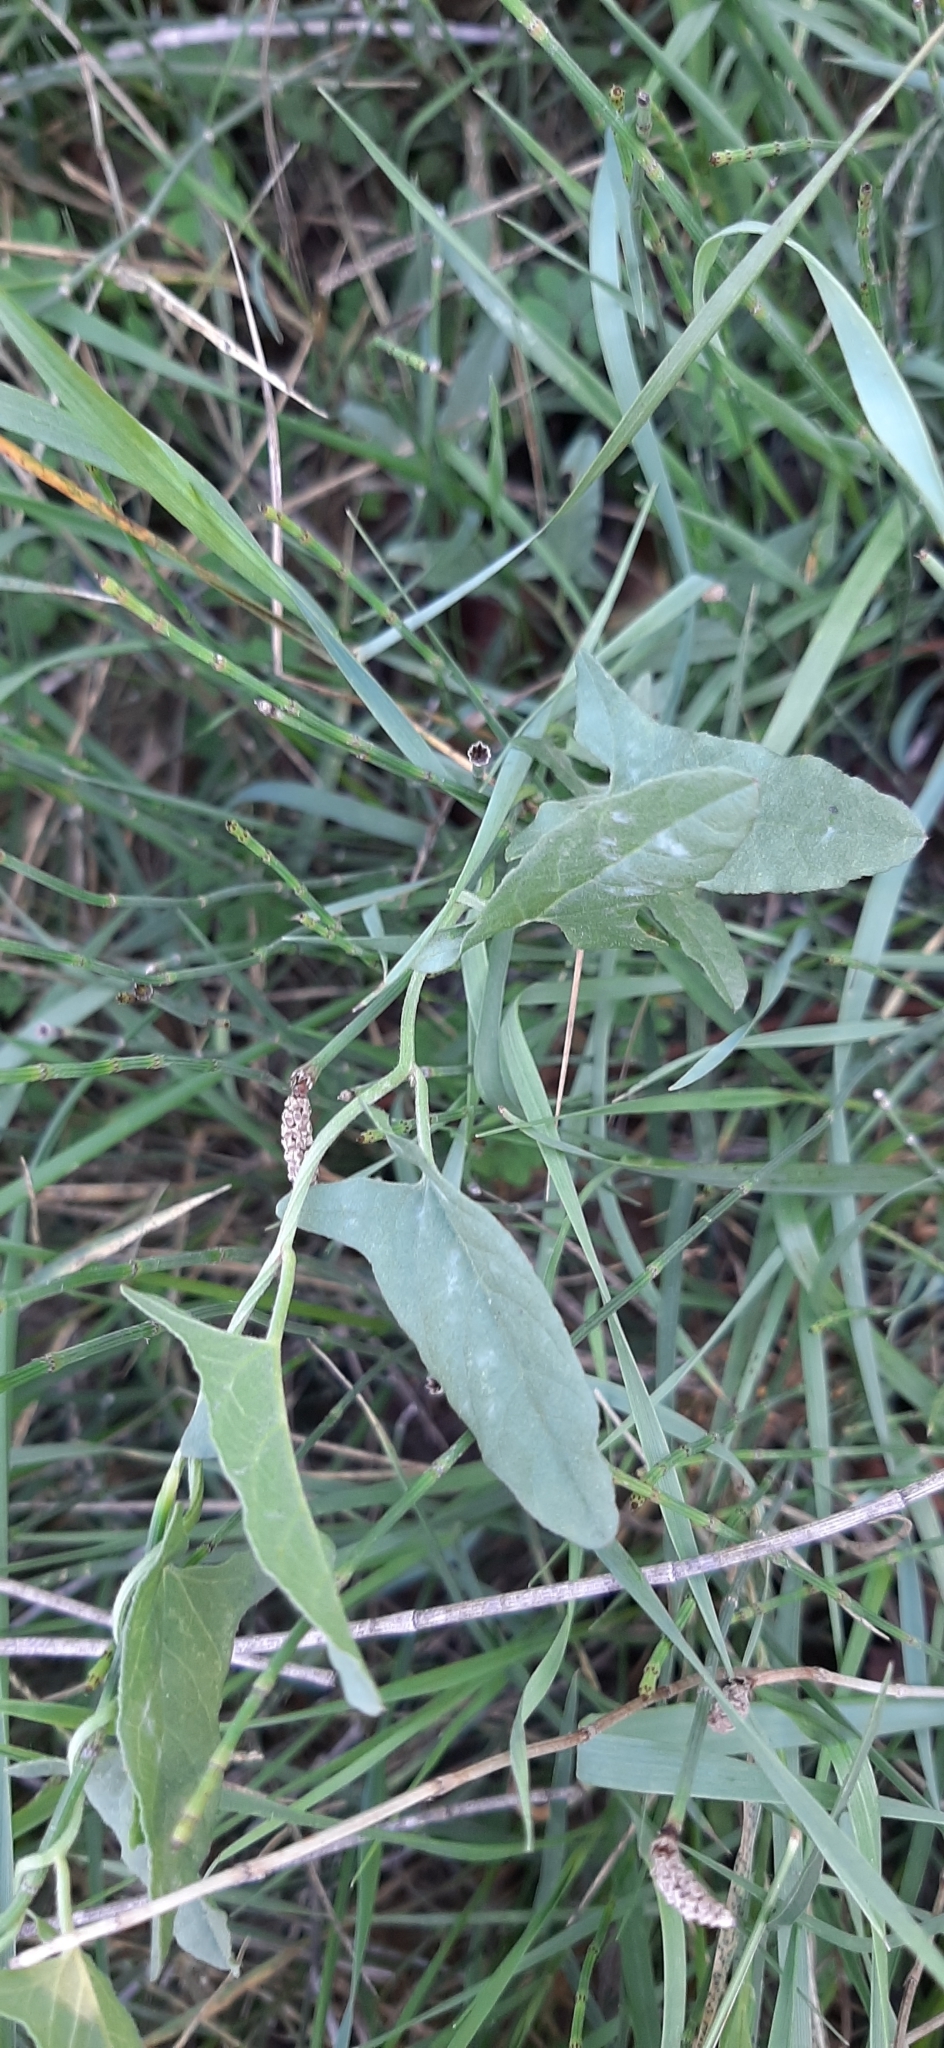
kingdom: Plantae
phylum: Tracheophyta
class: Magnoliopsida
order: Solanales
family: Convolvulaceae
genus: Convolvulus
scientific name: Convolvulus arvensis
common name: Field bindweed
